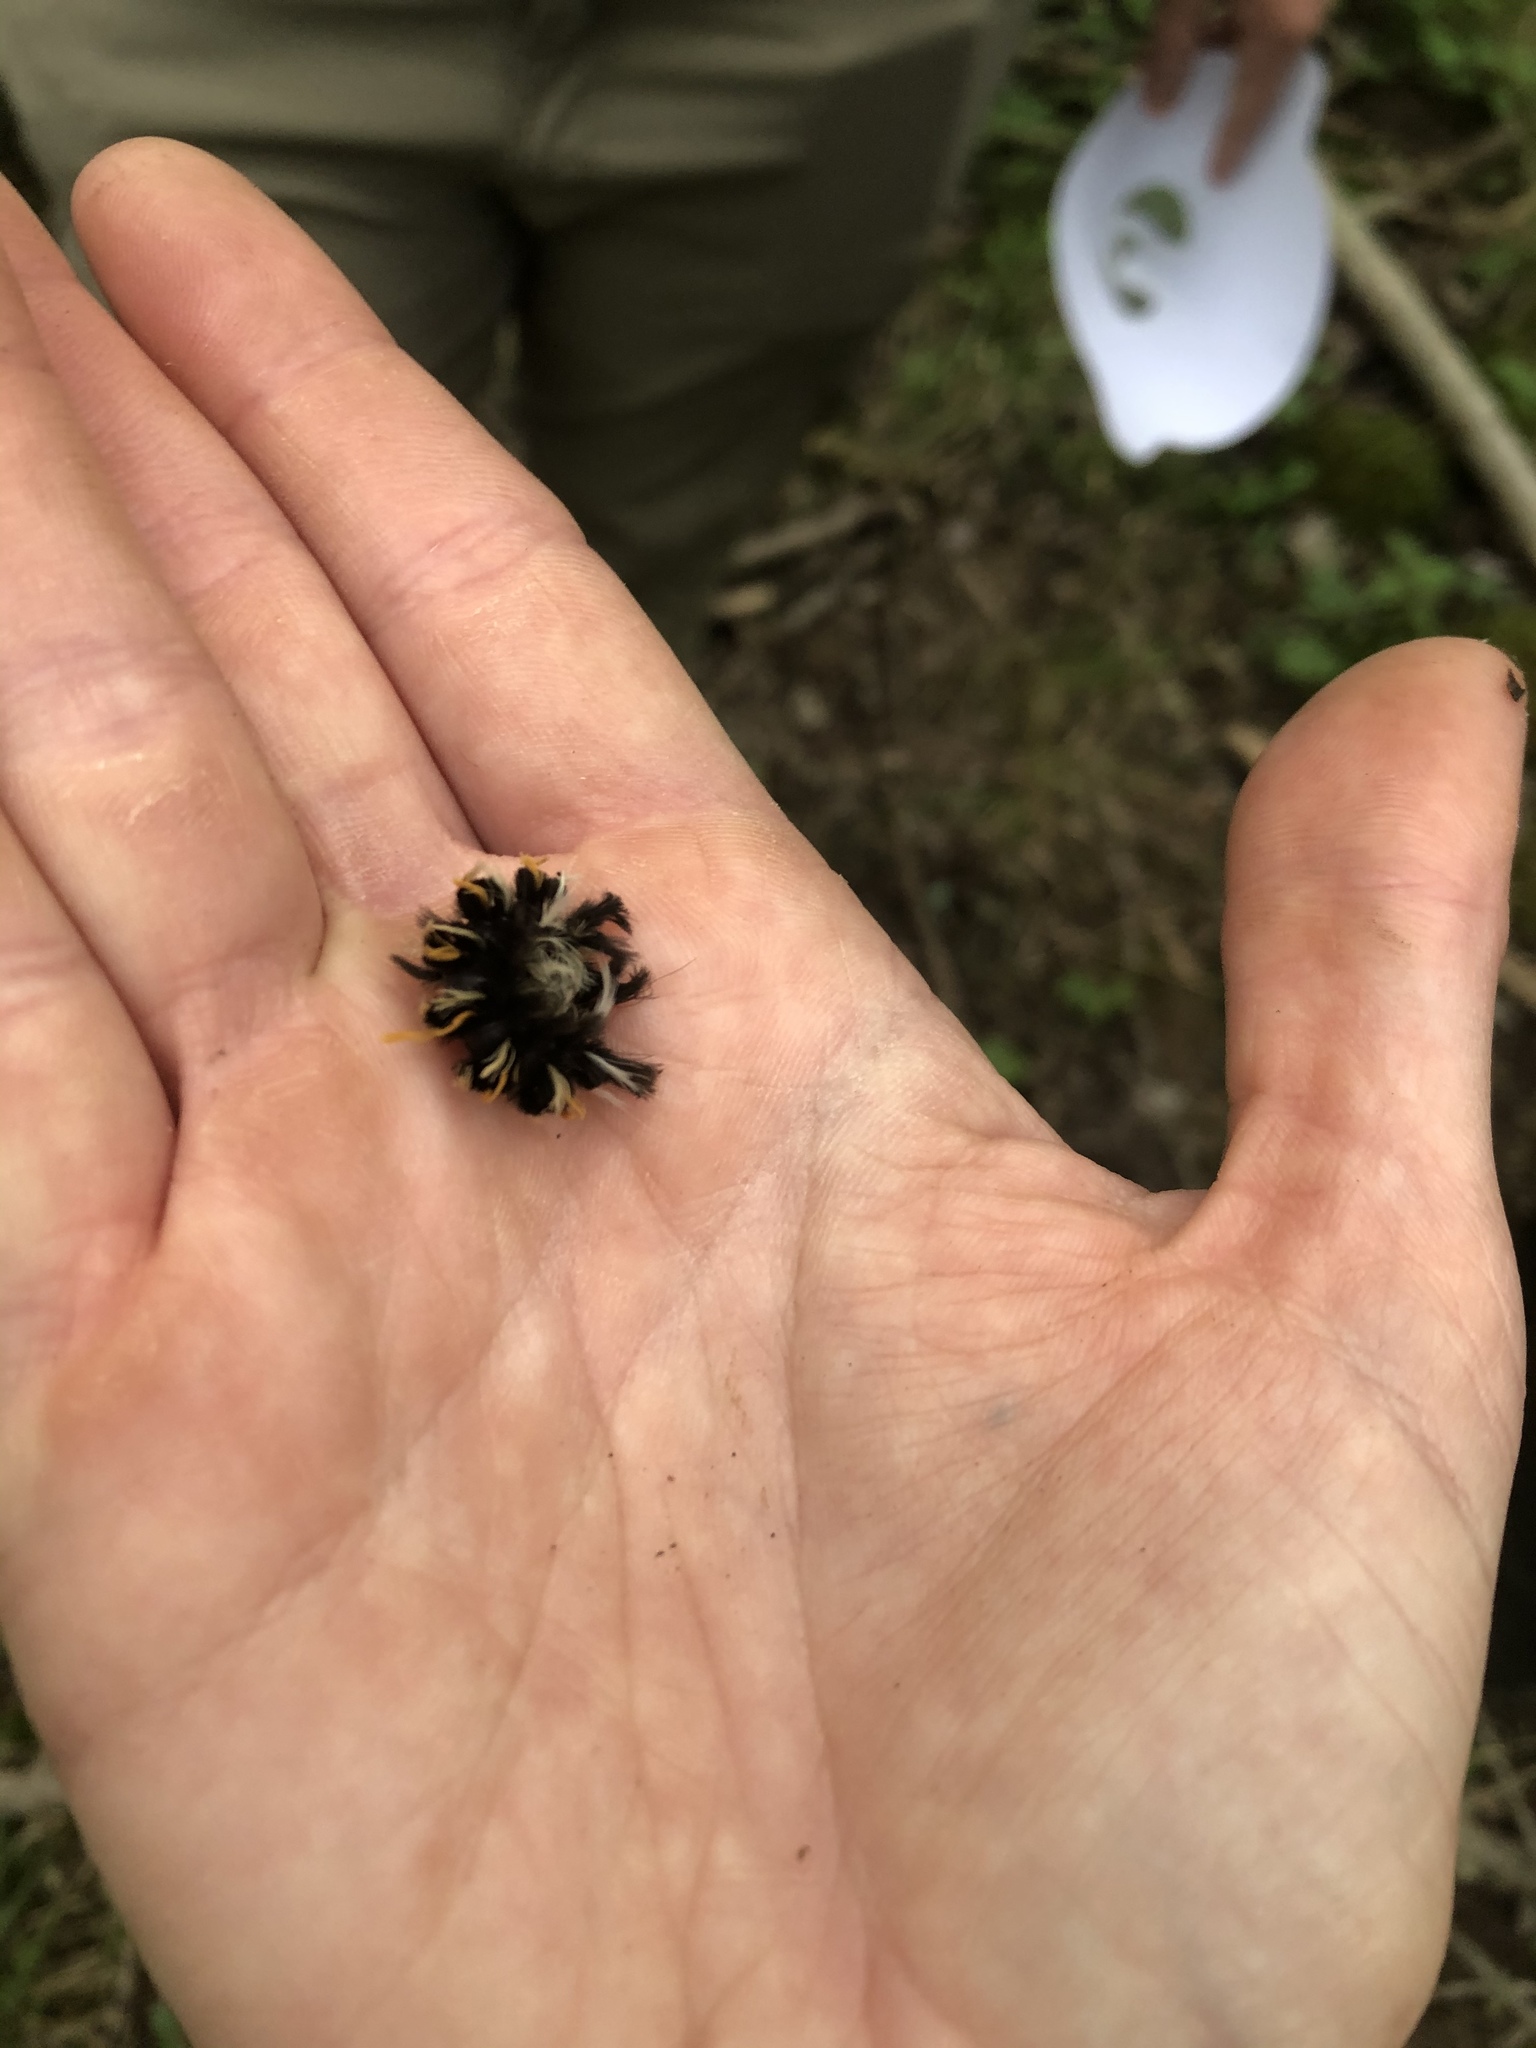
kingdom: Animalia
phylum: Arthropoda
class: Insecta
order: Lepidoptera
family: Erebidae
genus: Euchaetes
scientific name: Euchaetes egle
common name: Milkweed tussock moth
